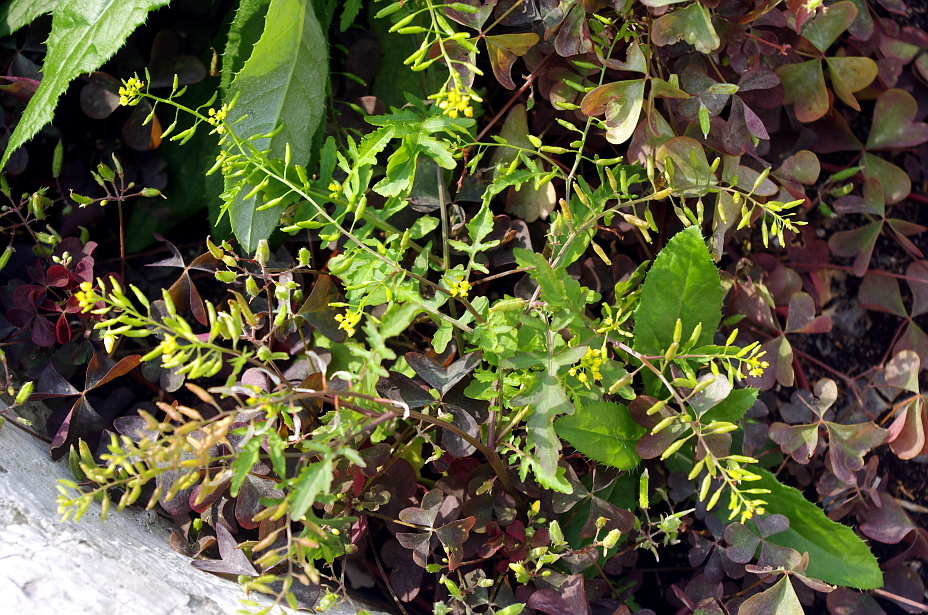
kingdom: Plantae
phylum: Tracheophyta
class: Magnoliopsida
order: Brassicales
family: Brassicaceae
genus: Rorippa
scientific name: Rorippa palustris
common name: Marsh yellow-cress
